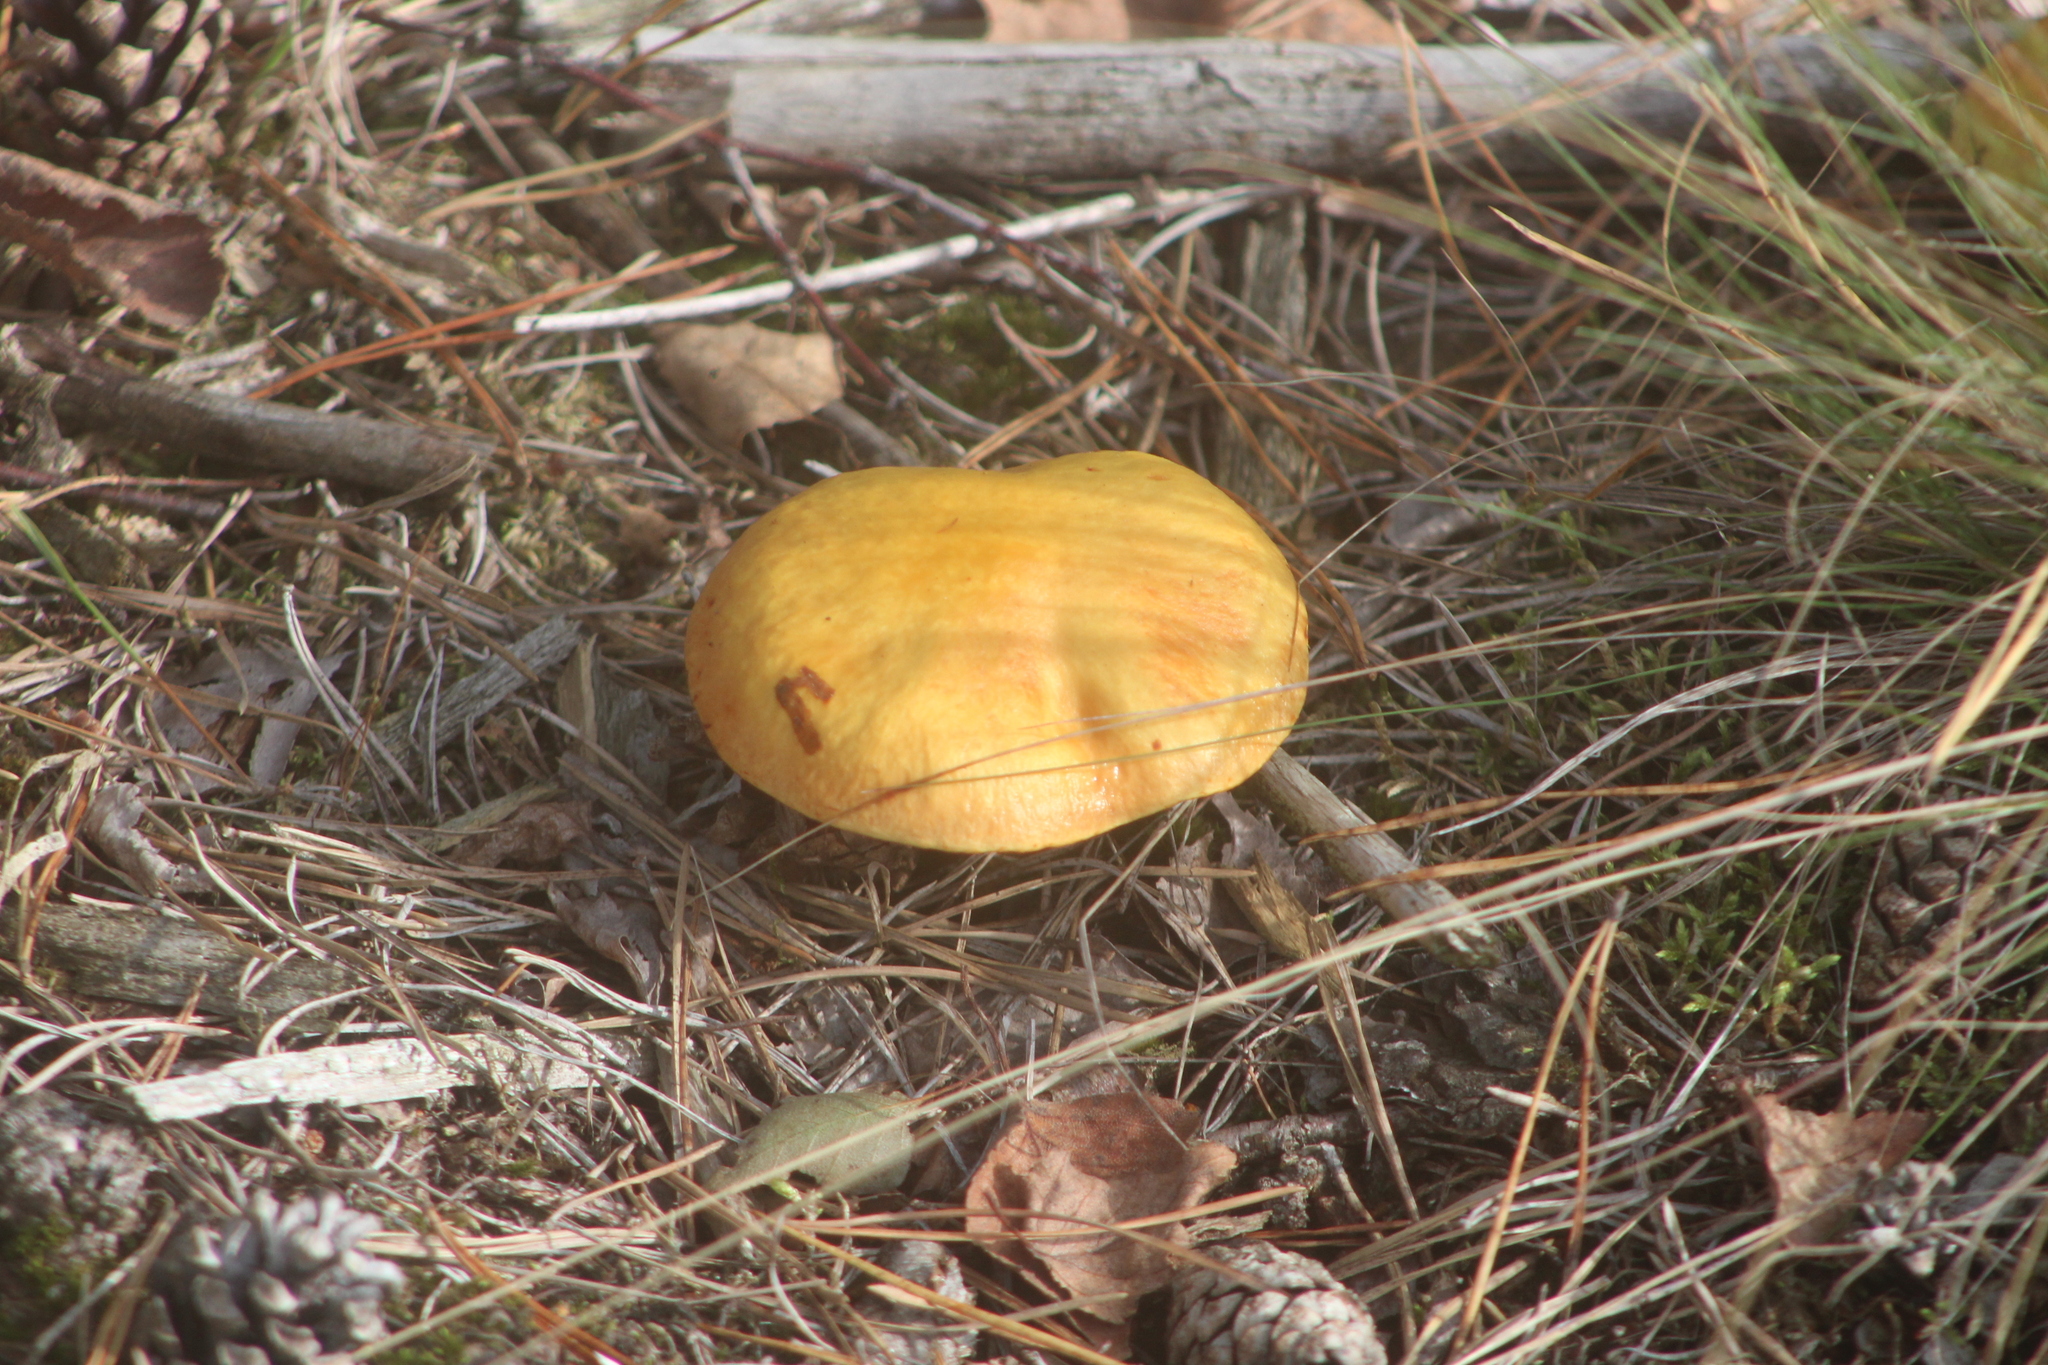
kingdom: Fungi
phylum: Basidiomycota
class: Agaricomycetes
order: Boletales
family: Suillaceae
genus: Suillus
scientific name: Suillus grevillei
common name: Larch bolete
